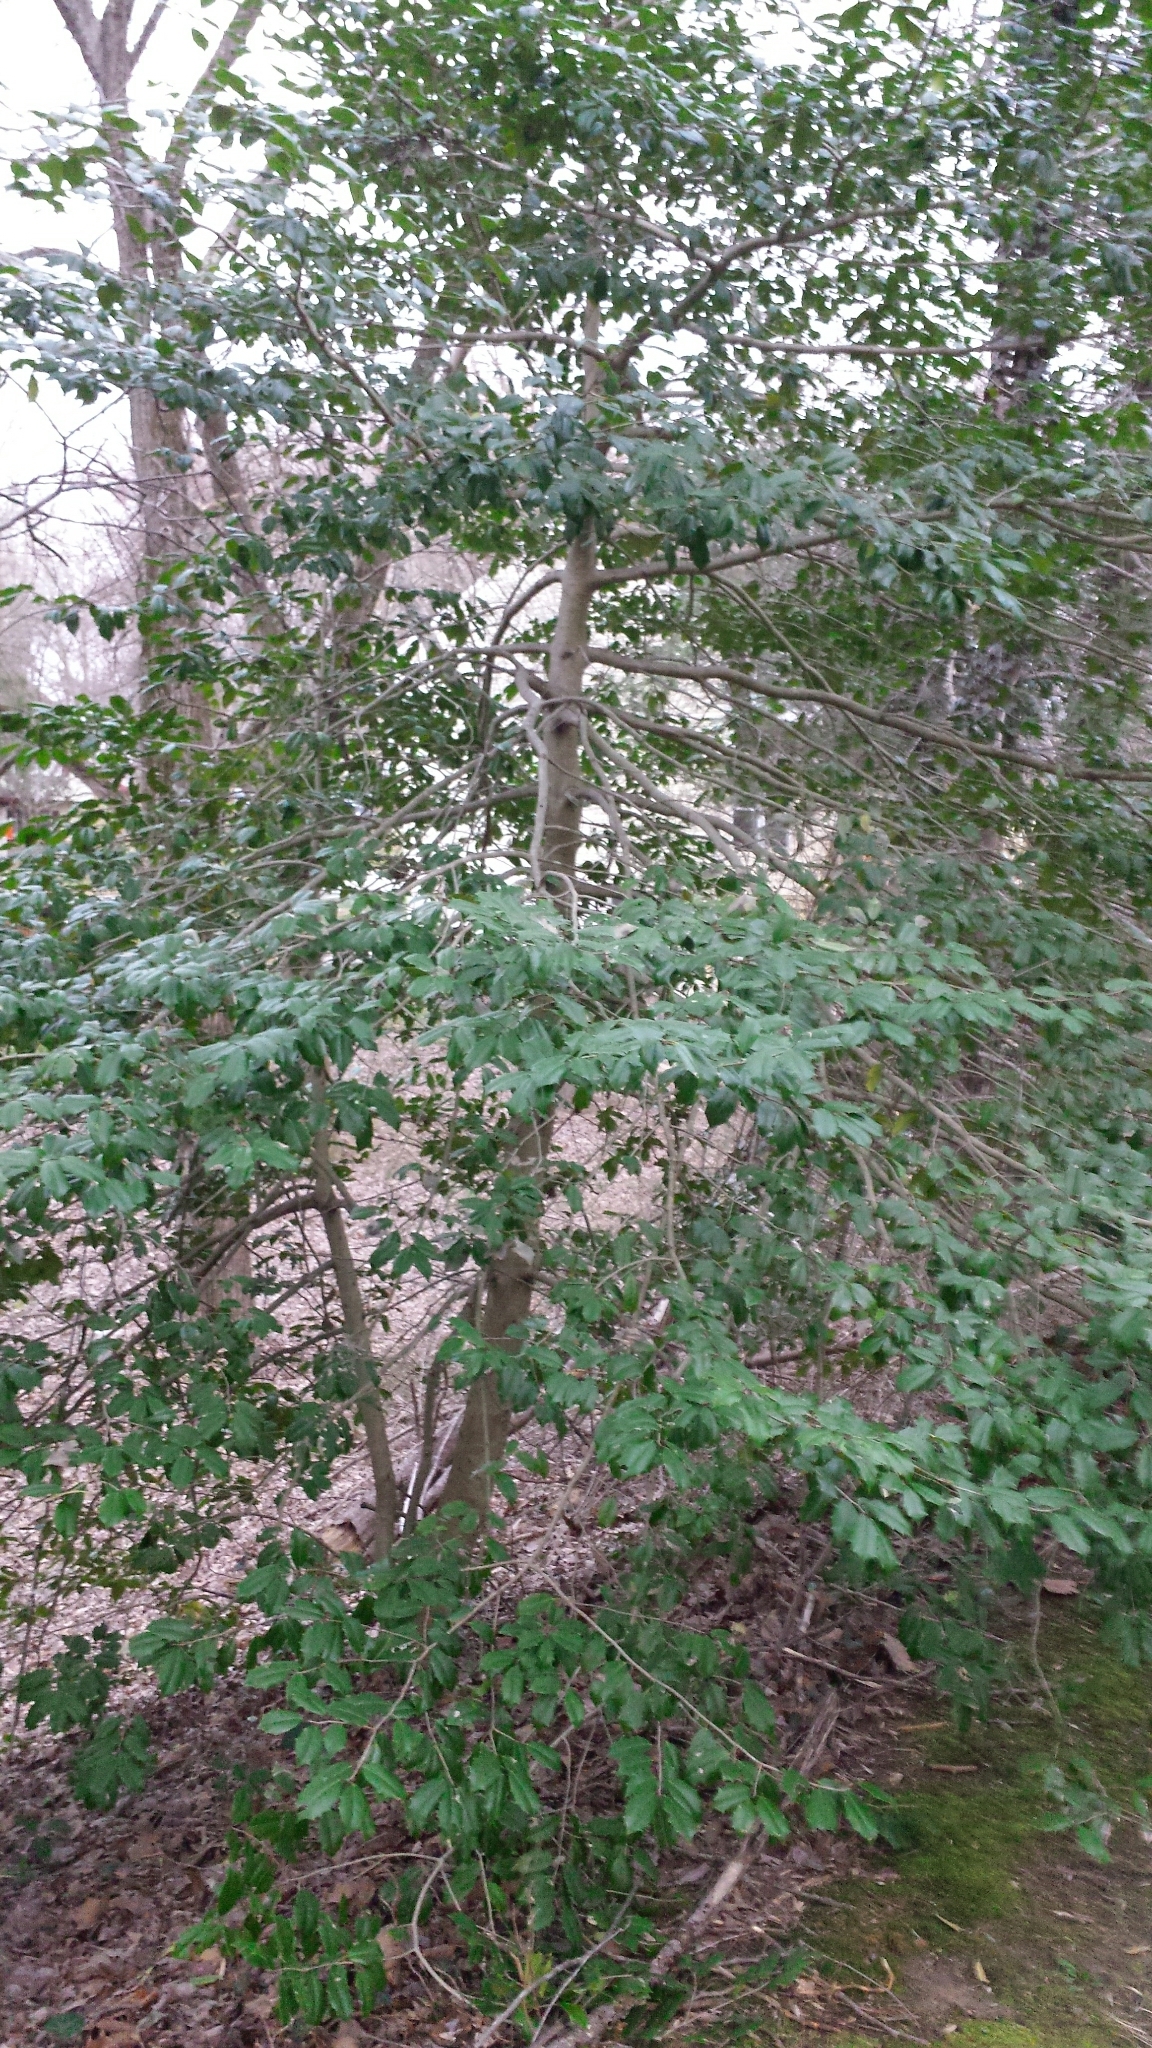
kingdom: Plantae
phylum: Tracheophyta
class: Magnoliopsida
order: Aquifoliales
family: Aquifoliaceae
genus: Ilex
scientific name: Ilex opaca
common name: American holly
